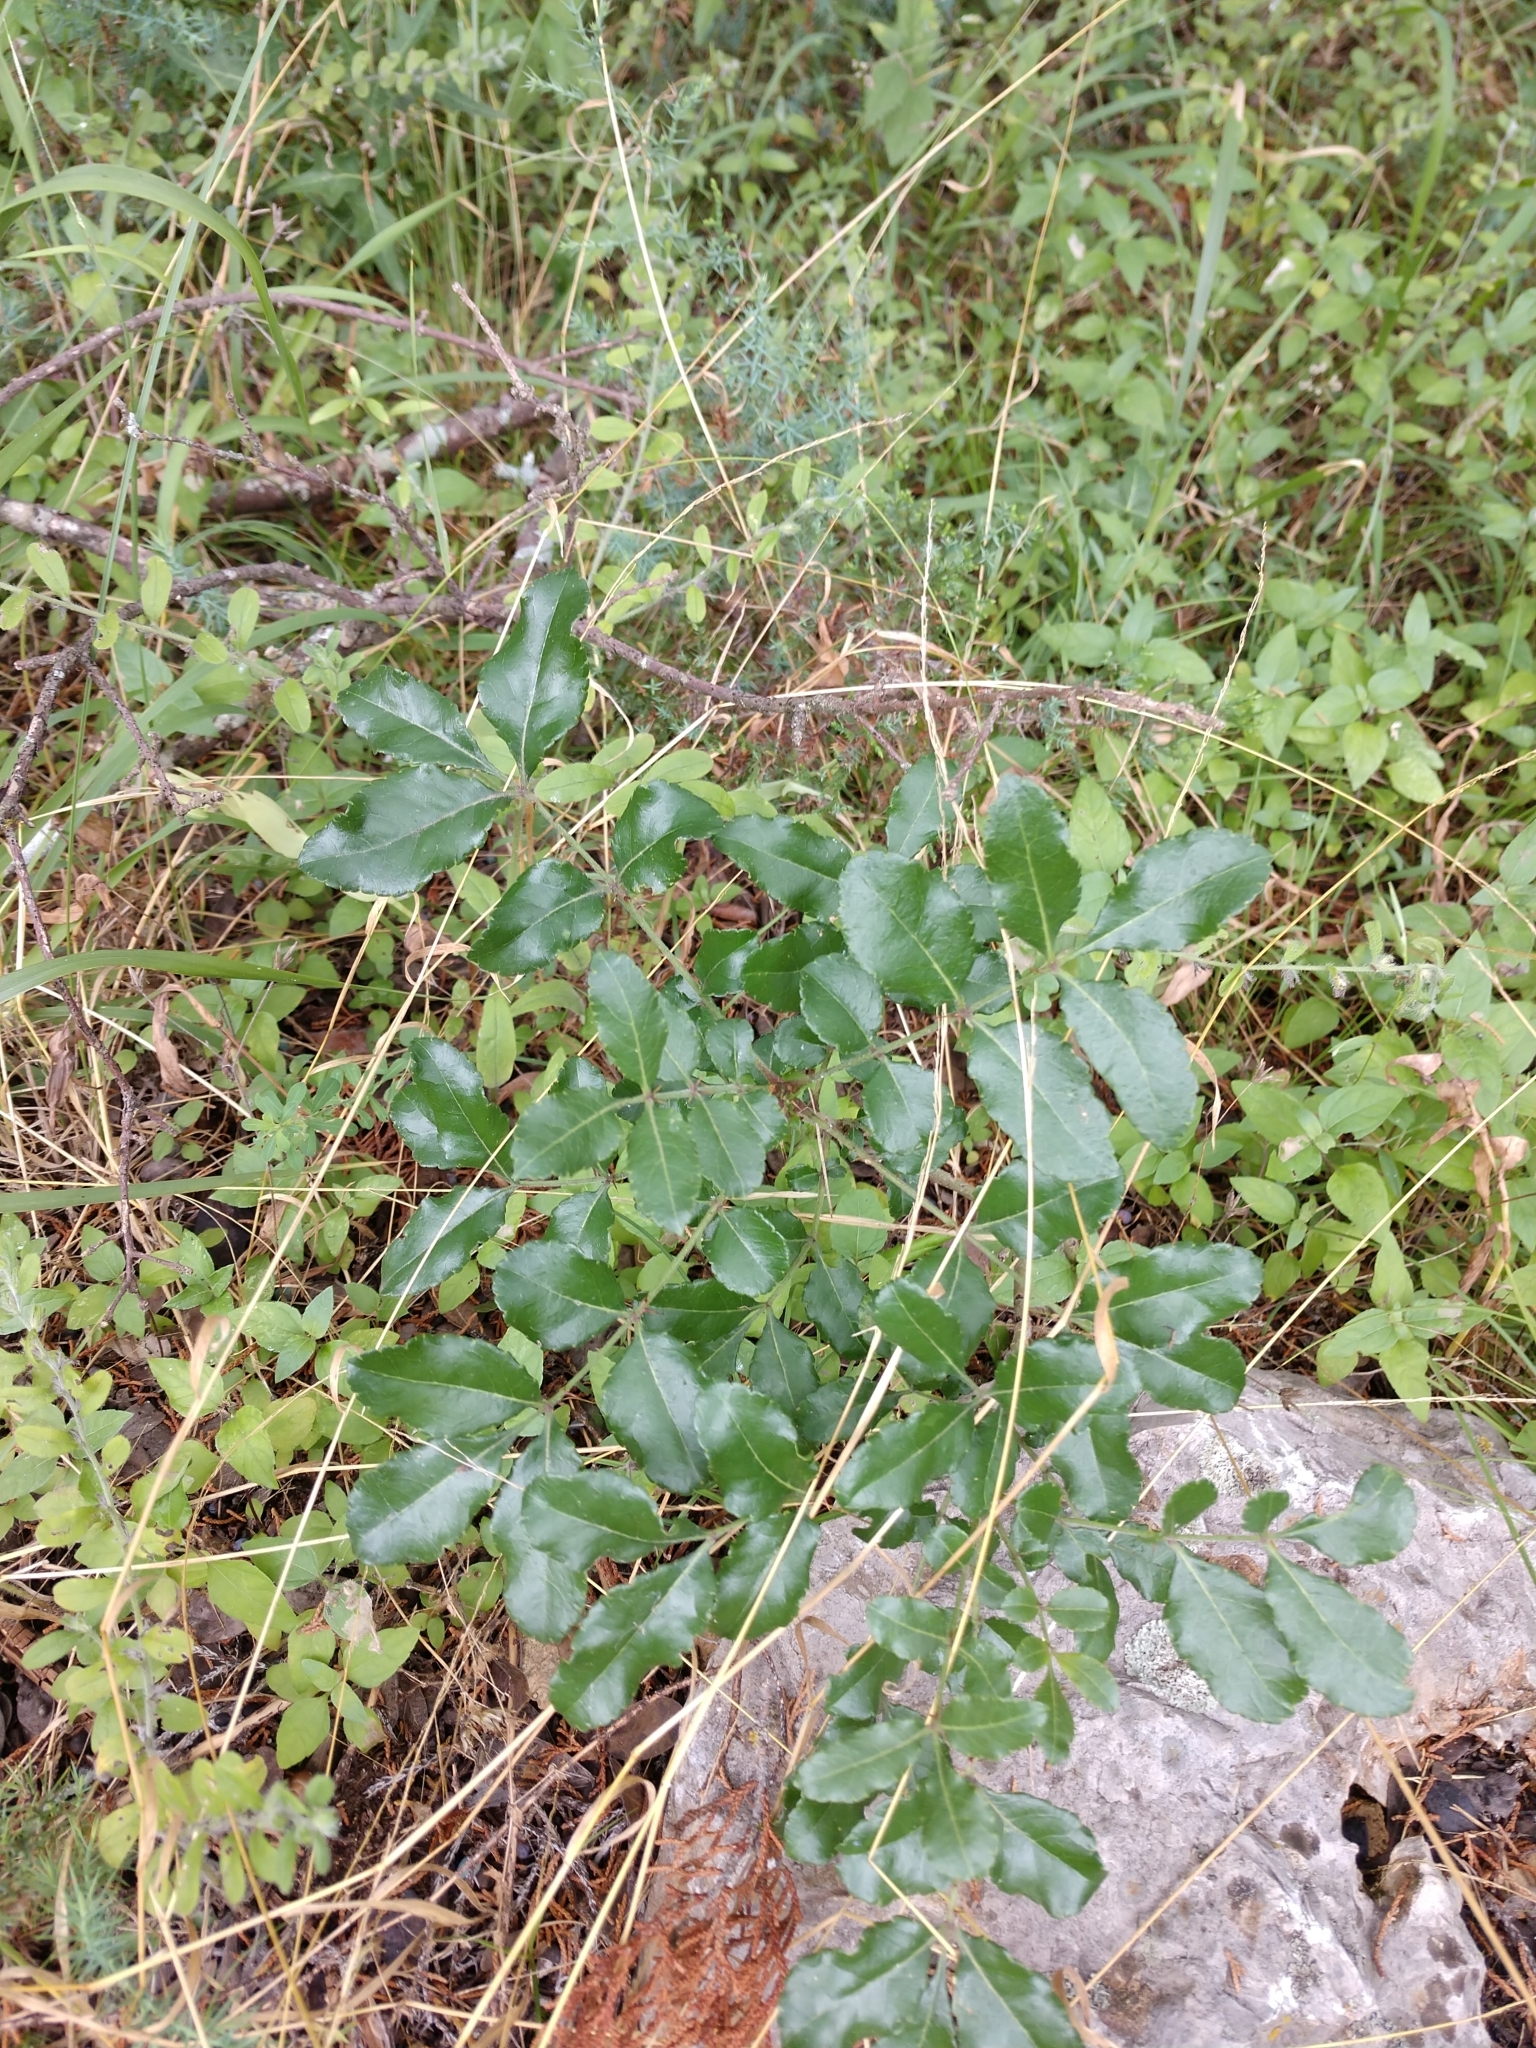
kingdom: Plantae
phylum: Tracheophyta
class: Magnoliopsida
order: Sapindales
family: Rutaceae
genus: Zanthoxylum
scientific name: Zanthoxylum clava-herculis
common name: Hercules'-club
